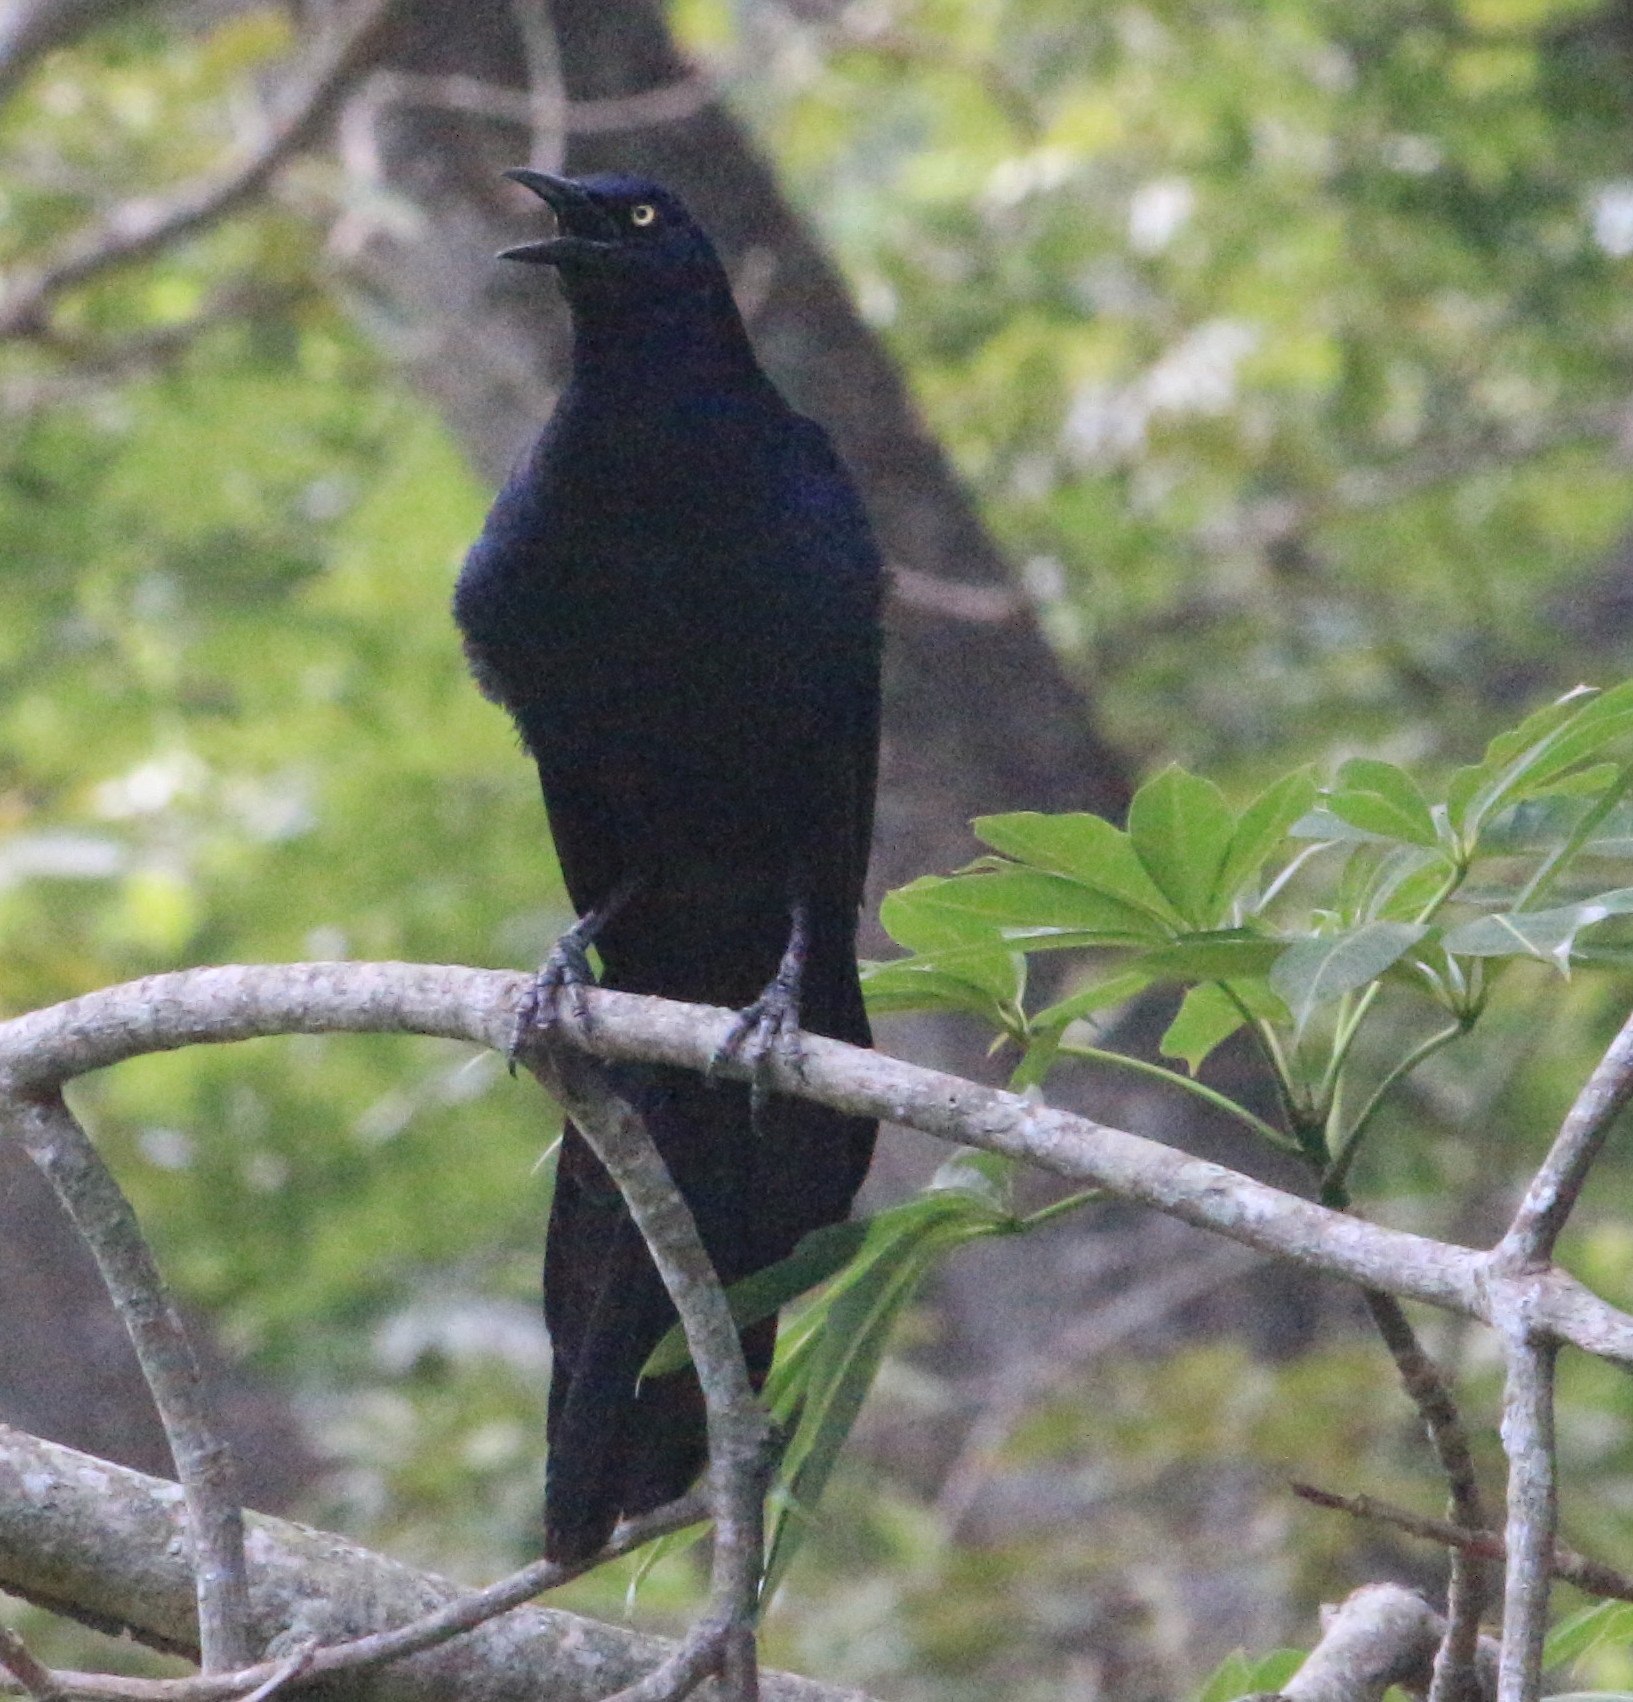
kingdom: Animalia
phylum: Chordata
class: Aves
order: Passeriformes
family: Icteridae
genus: Quiscalus
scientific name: Quiscalus mexicanus
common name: Great-tailed grackle
